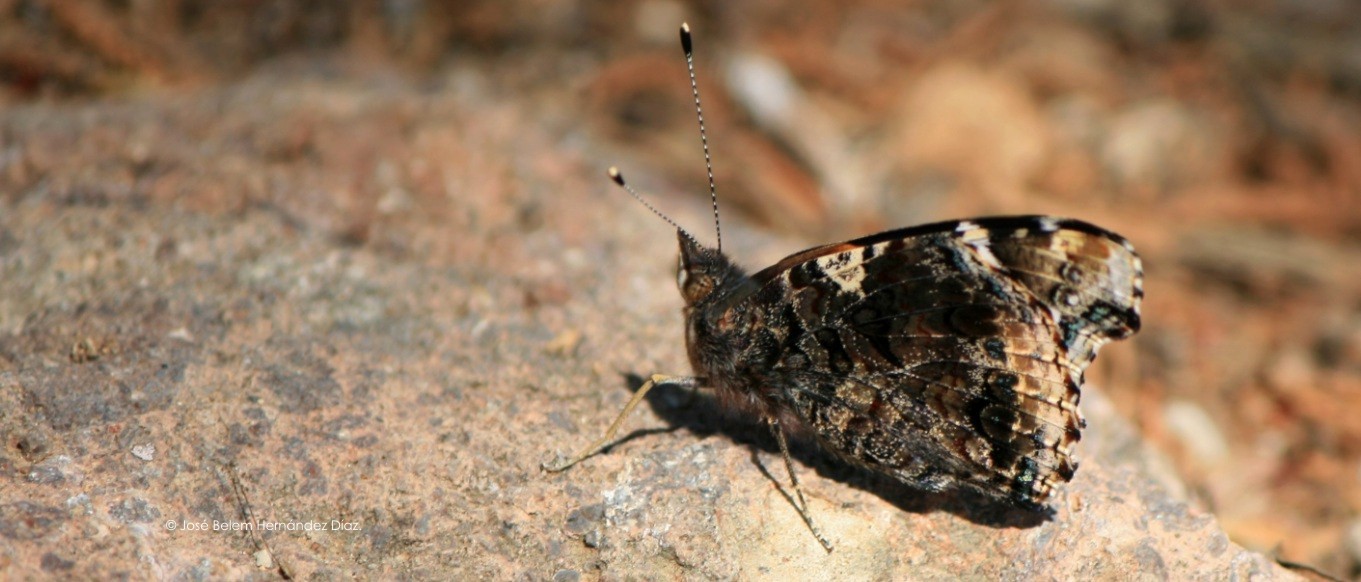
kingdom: Animalia
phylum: Arthropoda
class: Insecta
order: Lepidoptera
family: Nymphalidae
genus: Vanessa
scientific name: Vanessa atalanta
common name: Red admiral
